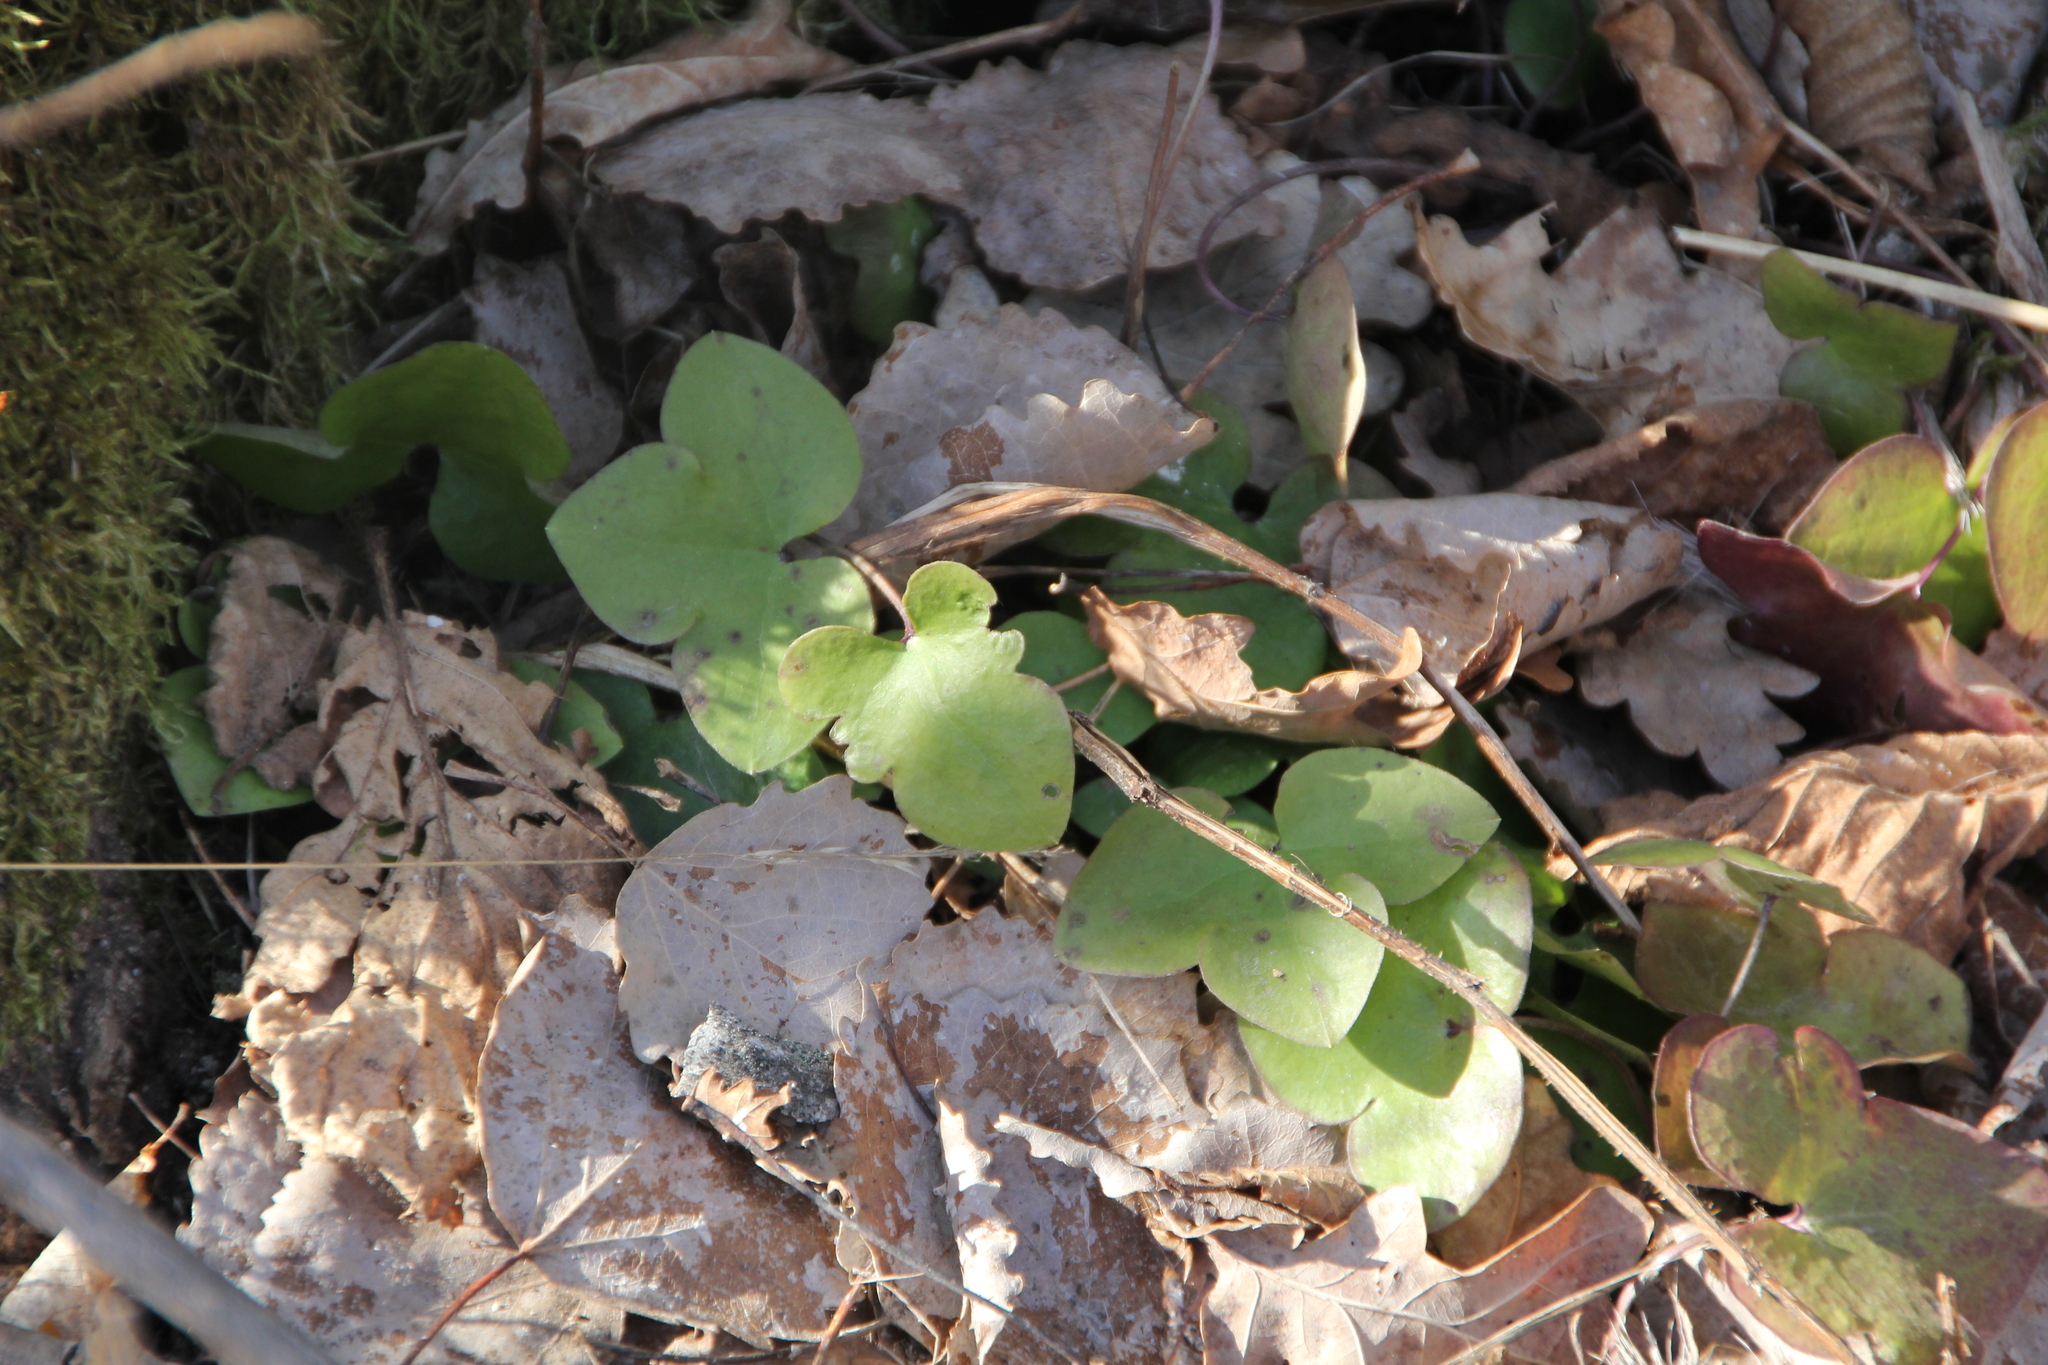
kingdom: Plantae
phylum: Tracheophyta
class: Magnoliopsida
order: Ranunculales
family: Ranunculaceae
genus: Hepatica
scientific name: Hepatica nobilis
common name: Liverleaf
